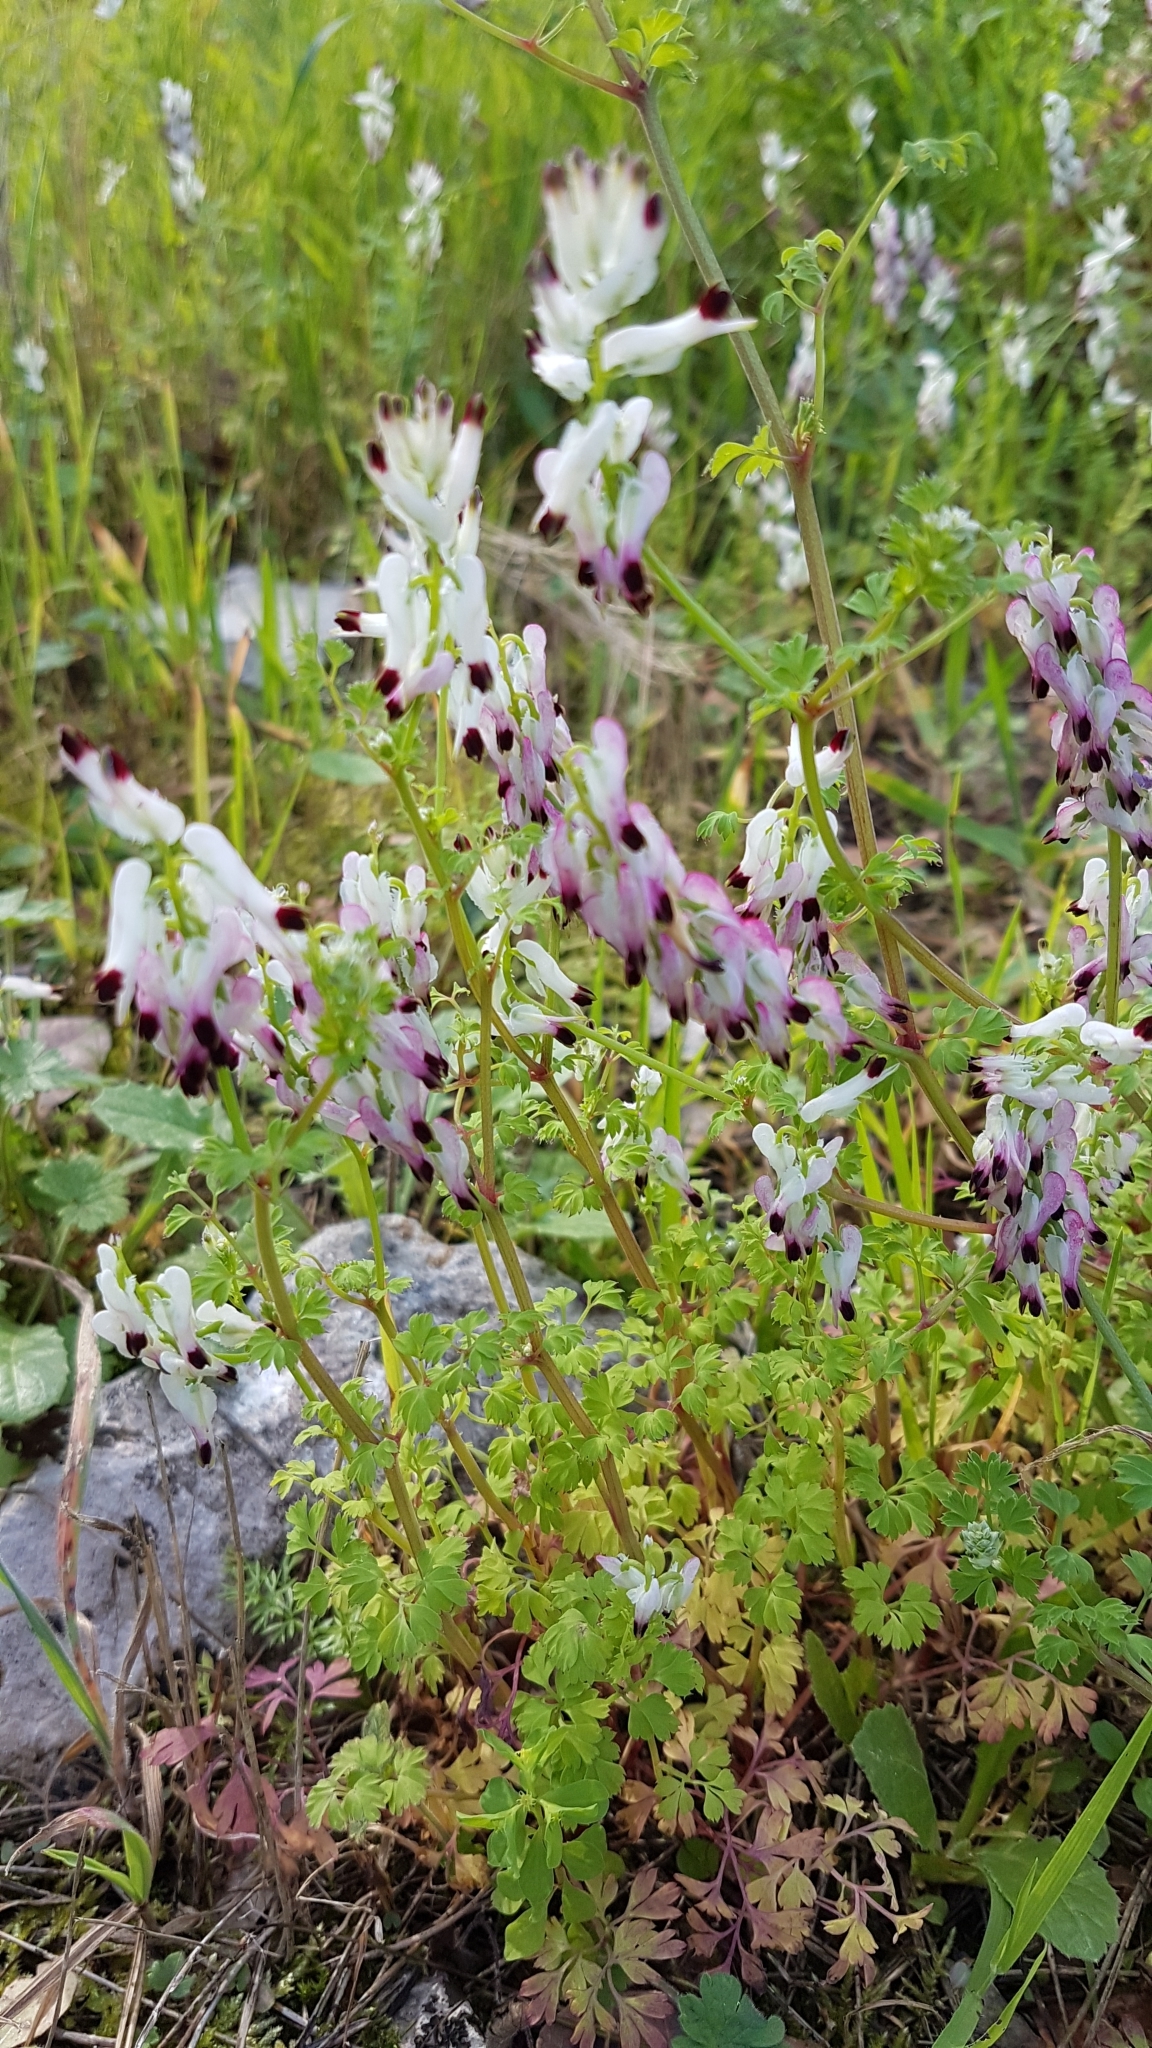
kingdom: Plantae
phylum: Tracheophyta
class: Magnoliopsida
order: Ranunculales
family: Papaveraceae
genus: Fumaria
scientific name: Fumaria capreolata
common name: White ramping-fumitory
